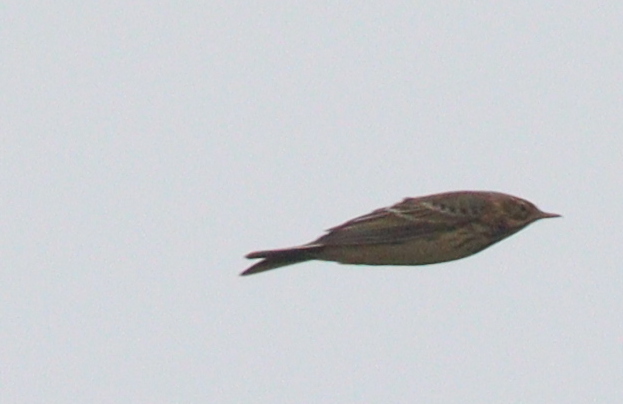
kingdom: Animalia
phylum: Chordata
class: Aves
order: Passeriformes
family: Motacillidae
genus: Anthus
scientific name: Anthus pratensis
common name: Meadow pipit
